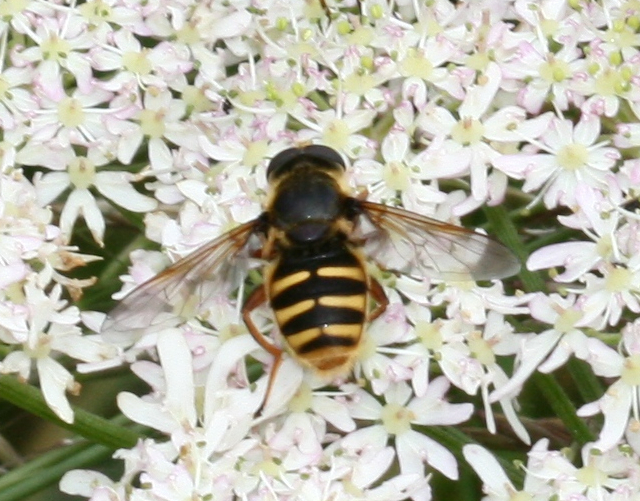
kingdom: Animalia
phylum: Arthropoda
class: Insecta
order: Diptera
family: Syrphidae
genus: Sericomyia
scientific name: Sericomyia silentis
